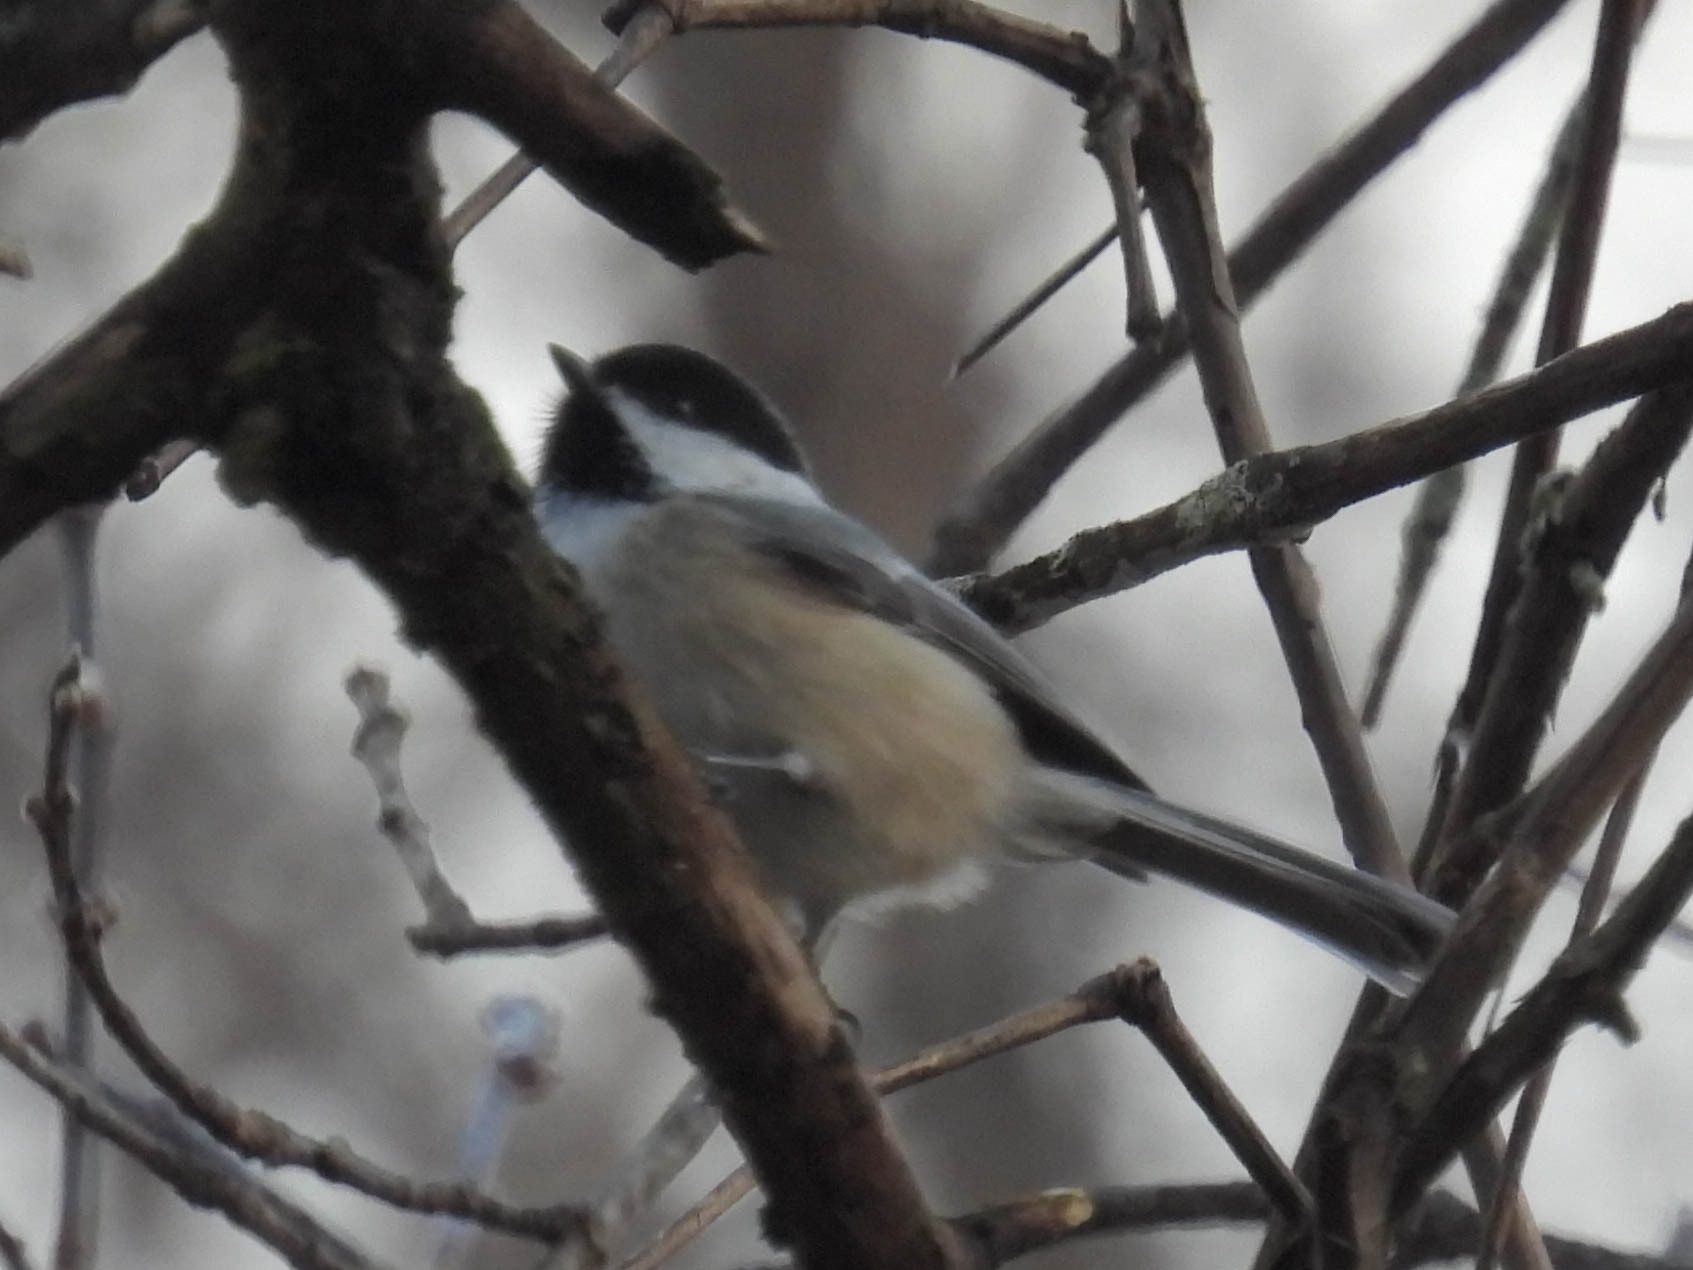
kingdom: Animalia
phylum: Chordata
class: Aves
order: Passeriformes
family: Paridae
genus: Poecile
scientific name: Poecile atricapillus
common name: Black-capped chickadee
